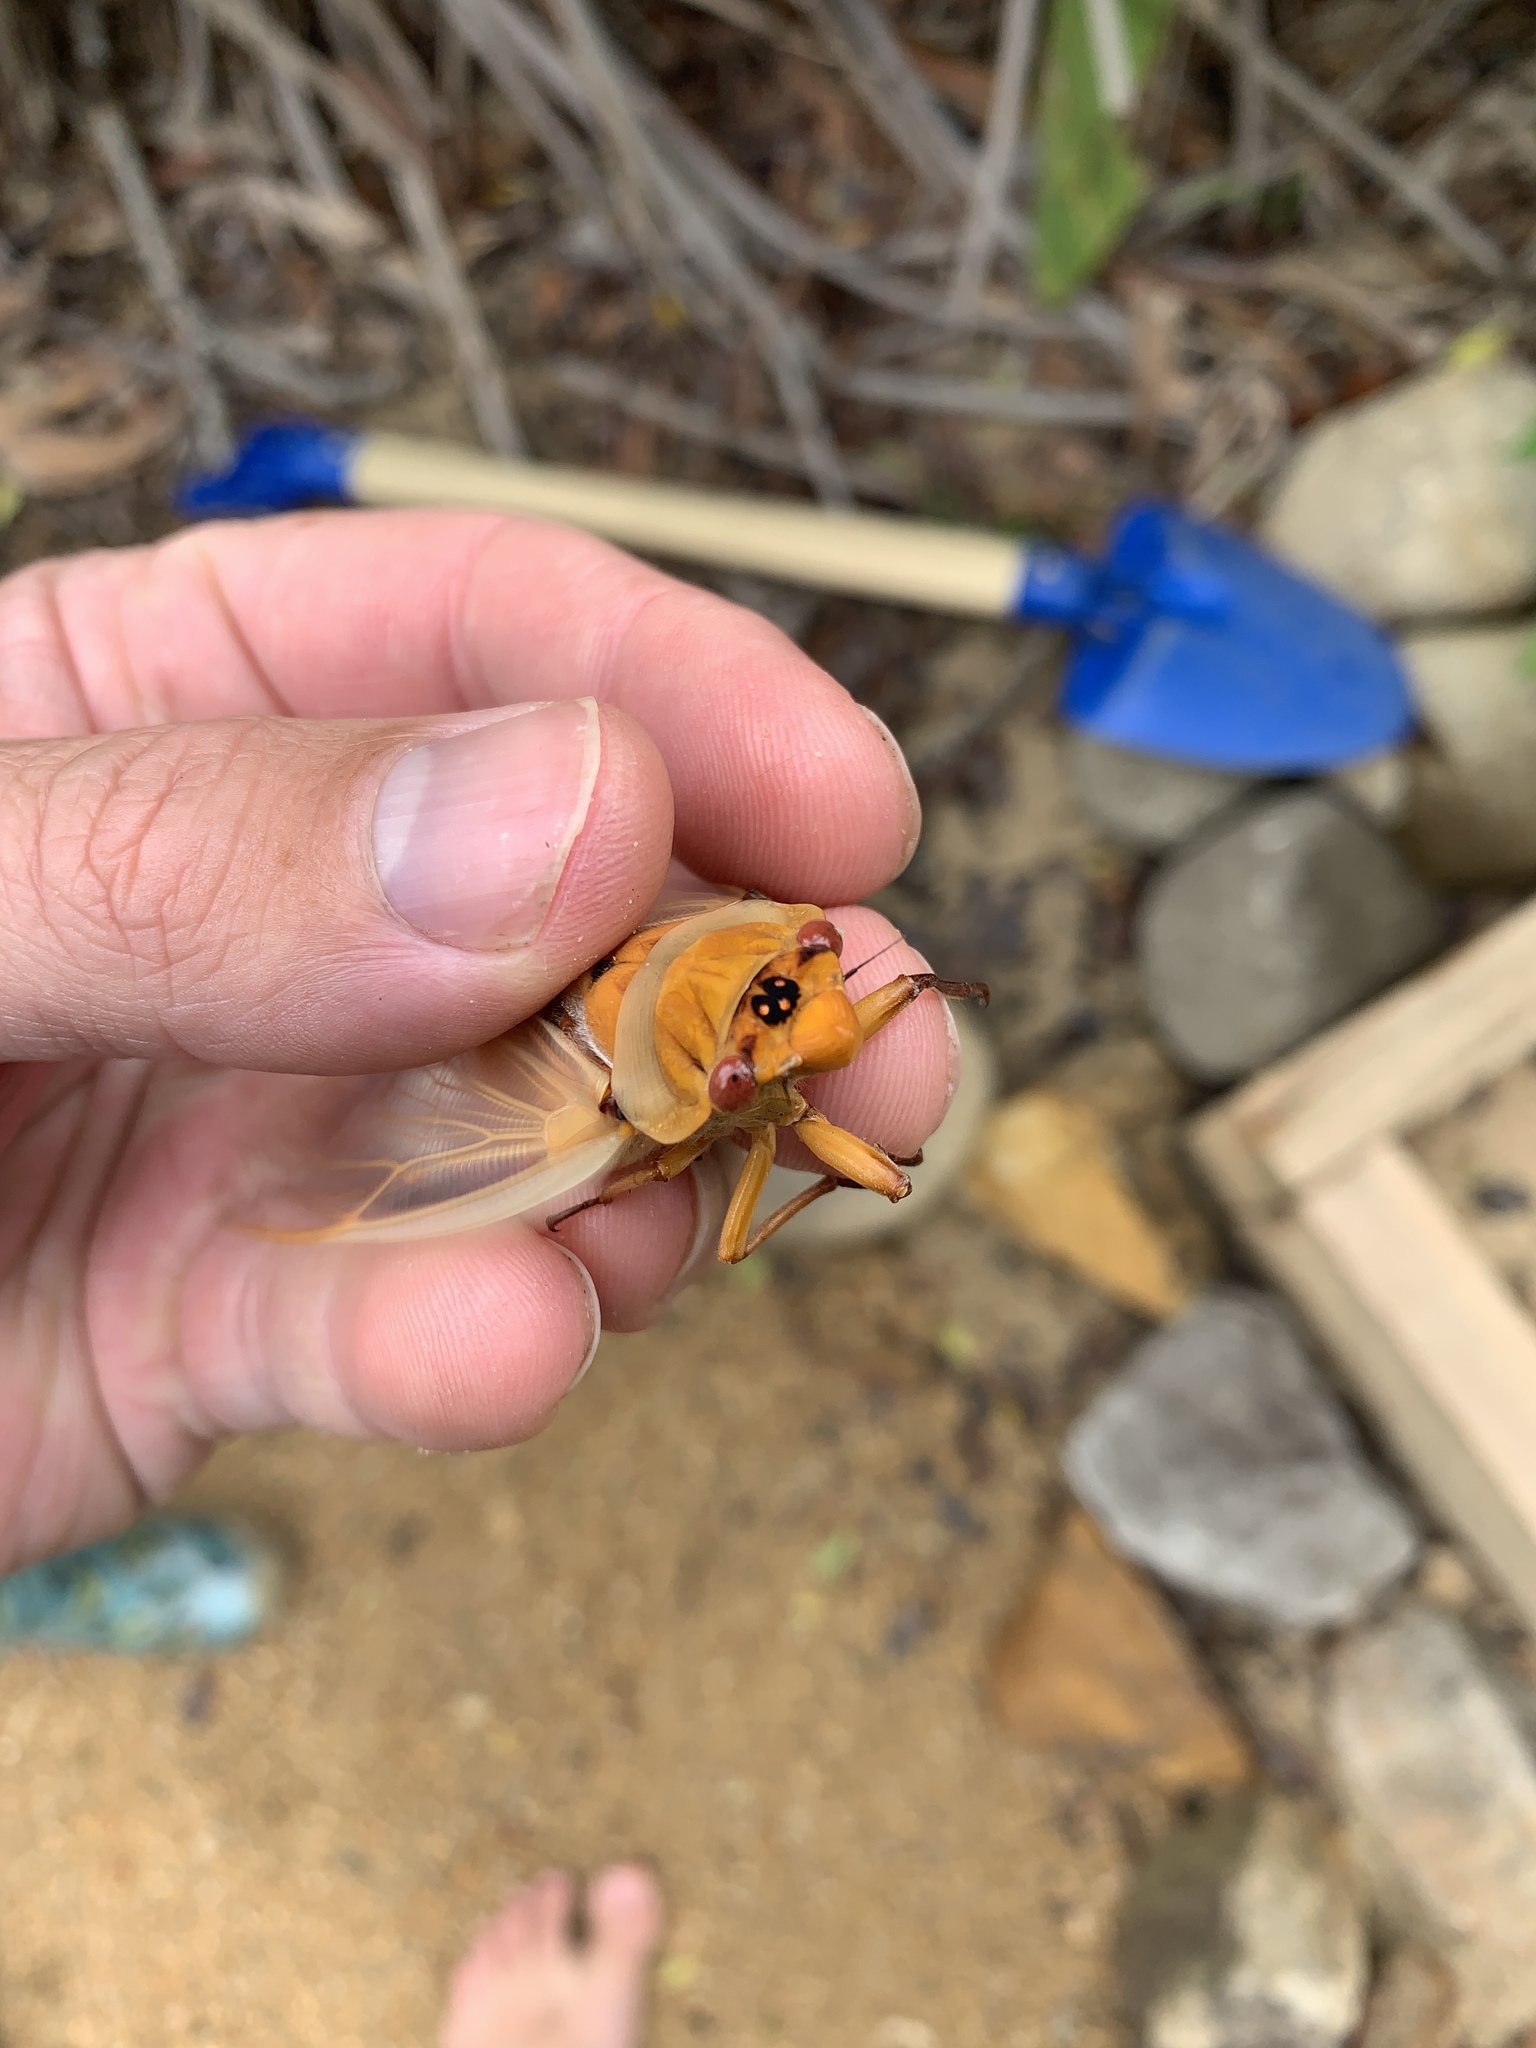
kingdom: Animalia
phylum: Arthropoda
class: Insecta
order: Hemiptera
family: Cicadidae
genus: Cyclochila
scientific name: Cyclochila australasiae
